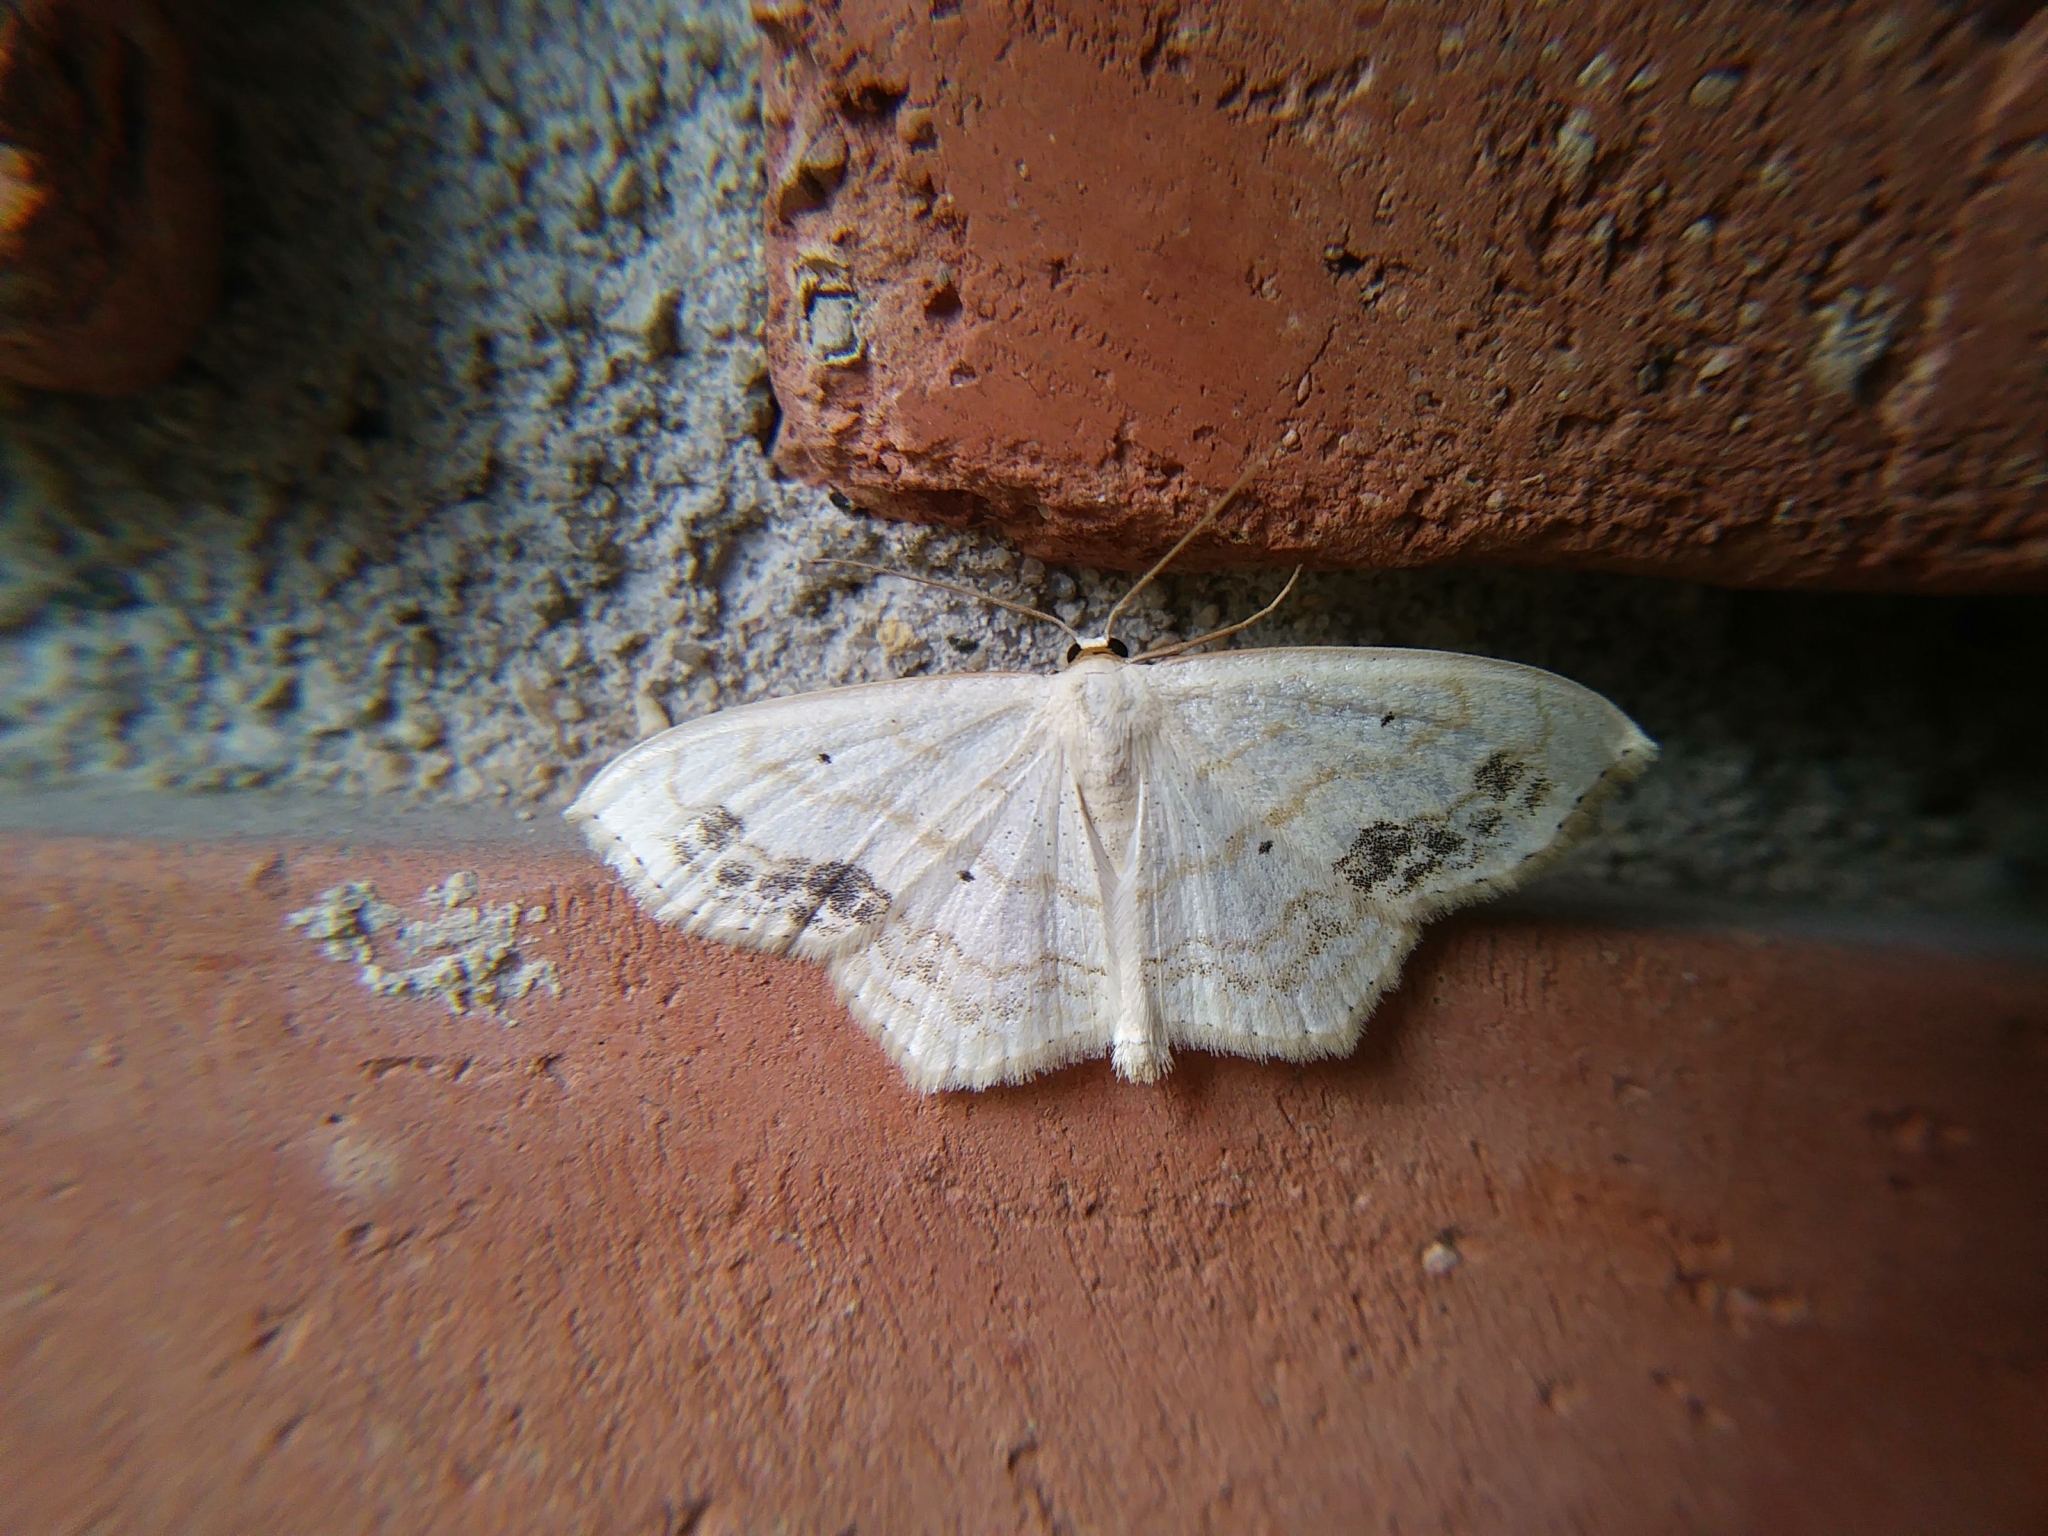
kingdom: Animalia
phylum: Arthropoda
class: Insecta
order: Lepidoptera
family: Geometridae
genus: Scopula
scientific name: Scopula limboundata
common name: Large lace border
